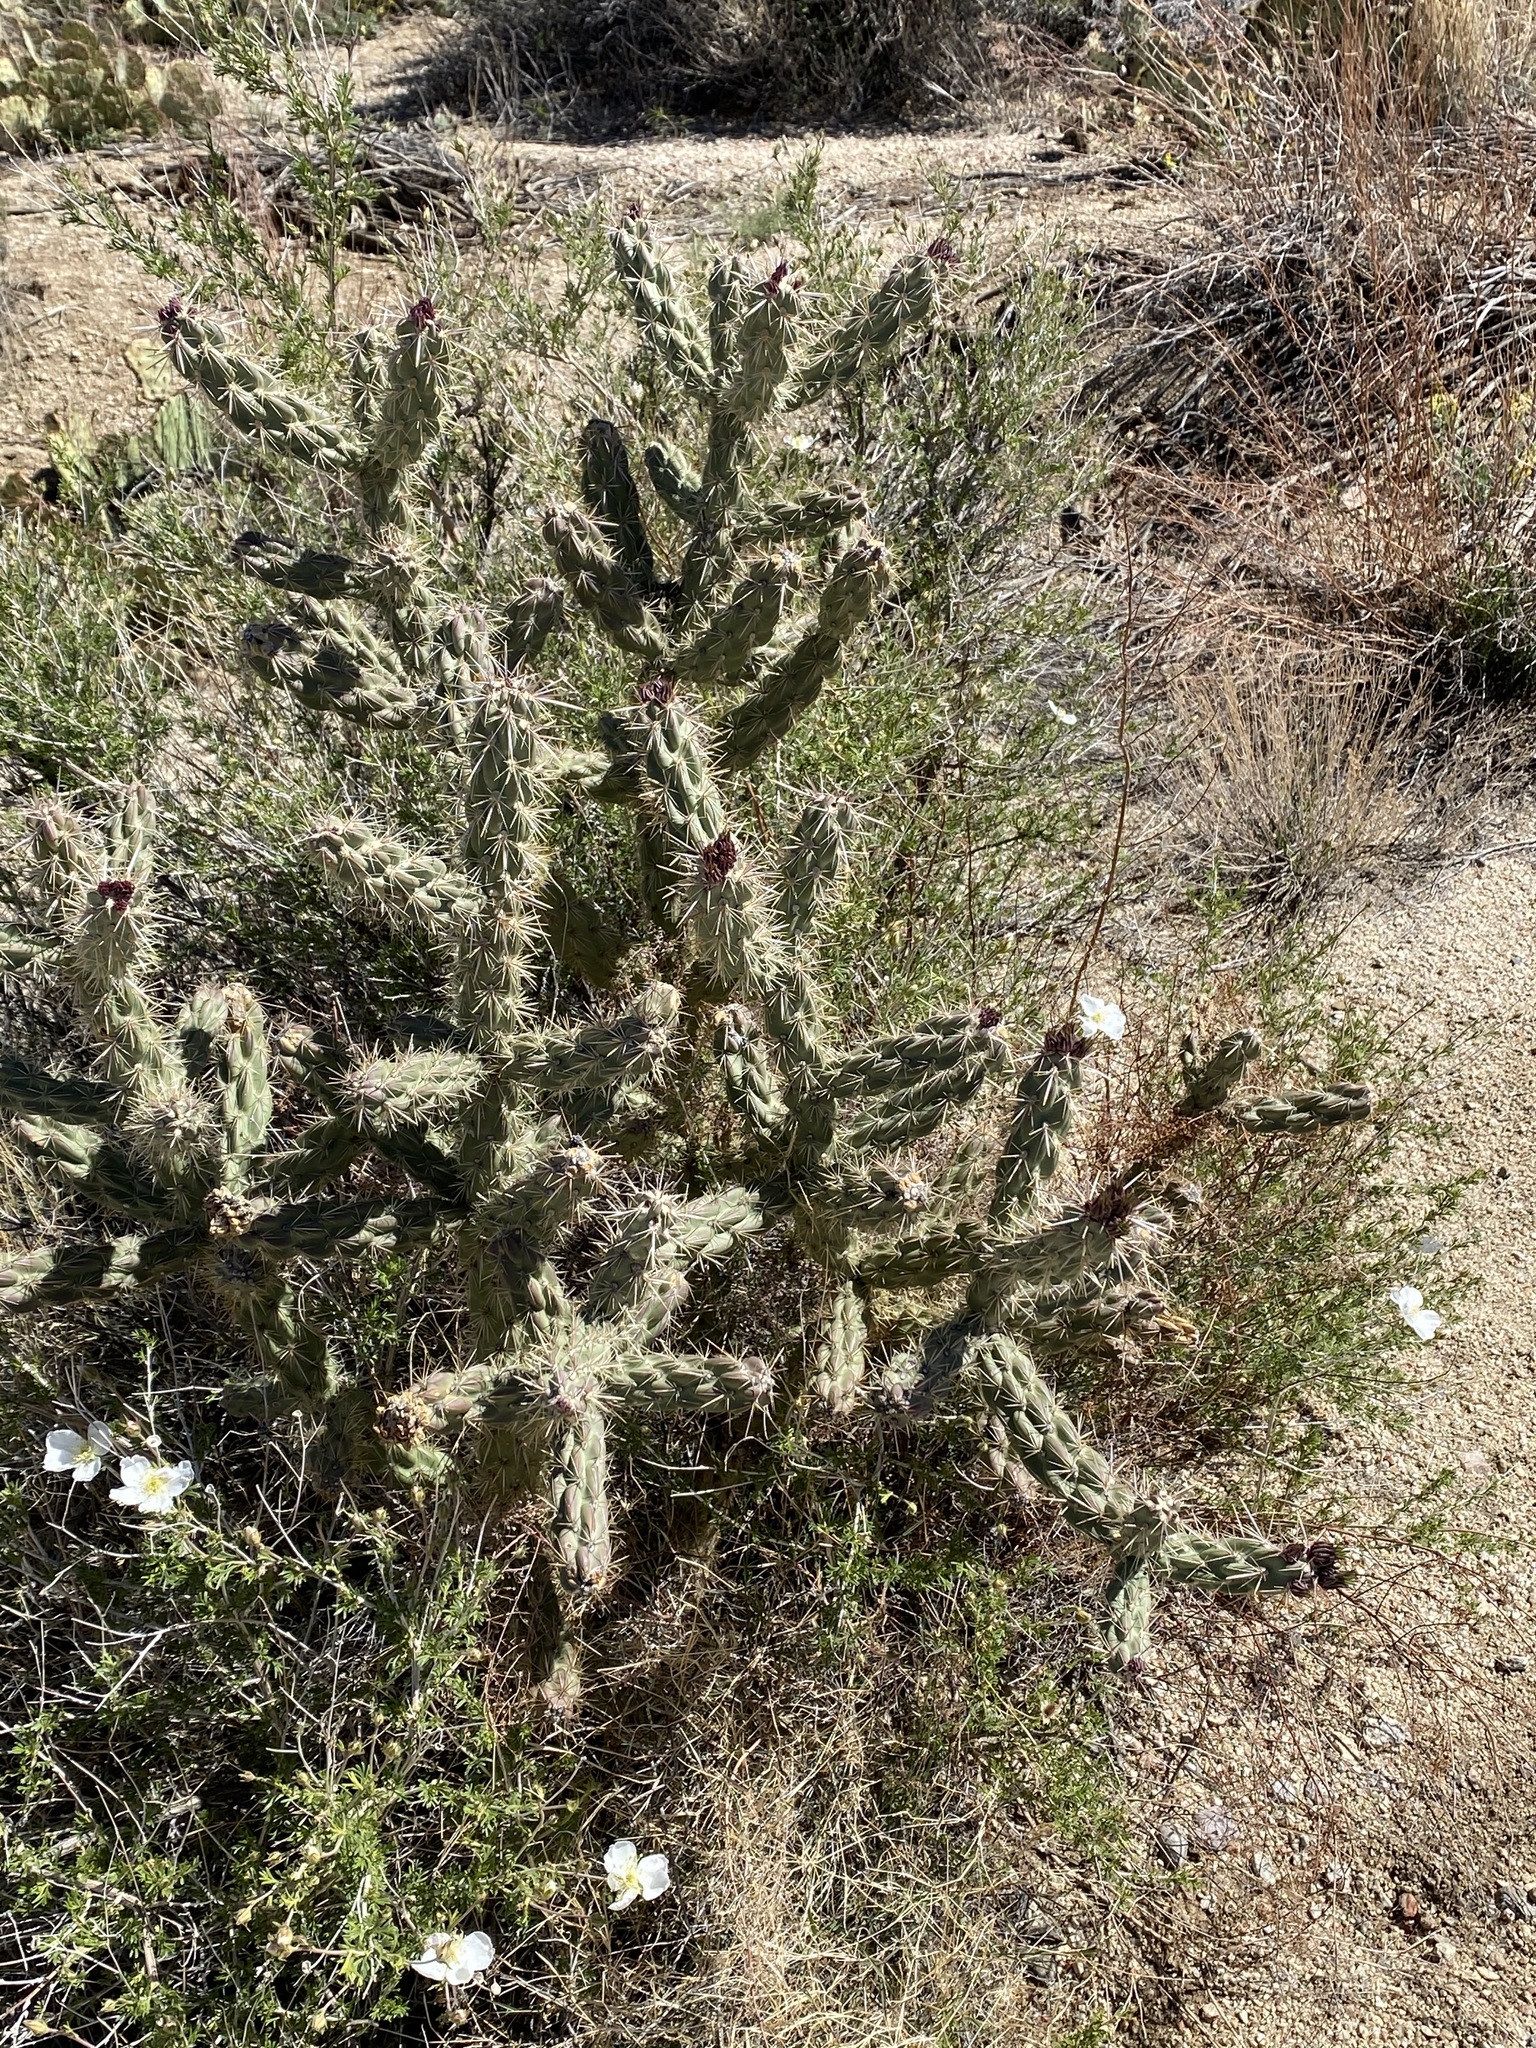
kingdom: Plantae
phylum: Tracheophyta
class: Magnoliopsida
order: Caryophyllales
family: Cactaceae
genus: Cylindropuntia
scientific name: Cylindropuntia imbricata
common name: Candelabrum cactus
